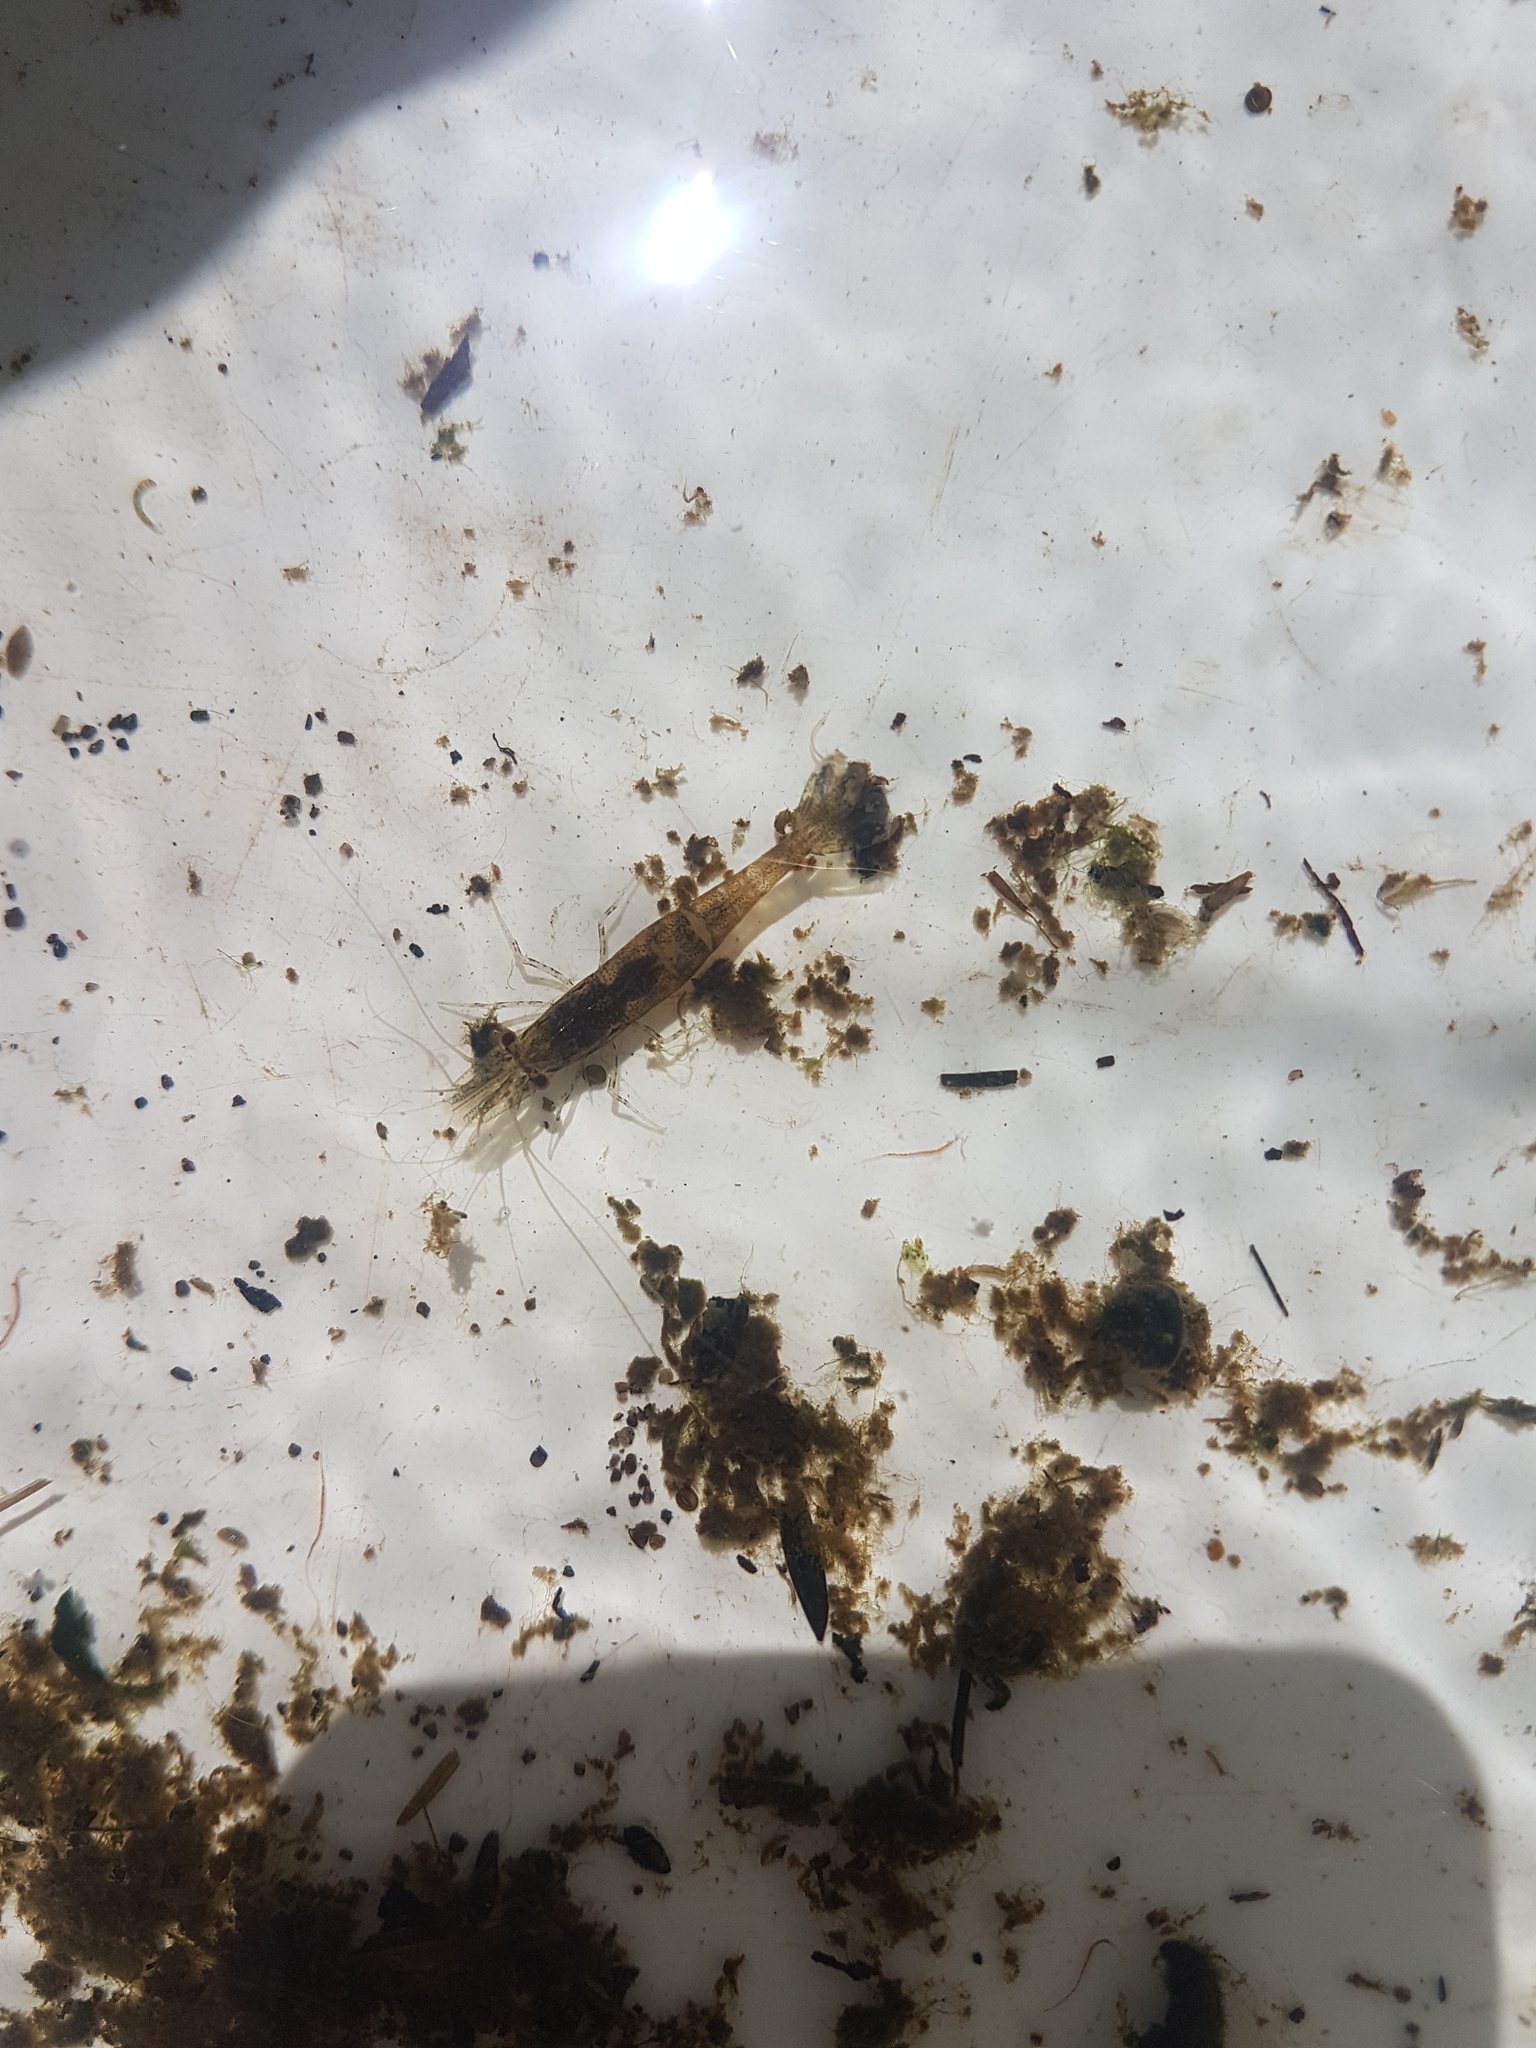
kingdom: Animalia
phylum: Arthropoda
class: Malacostraca
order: Decapoda
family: Atyidae
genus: Paratya
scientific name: Paratya curvirostris
